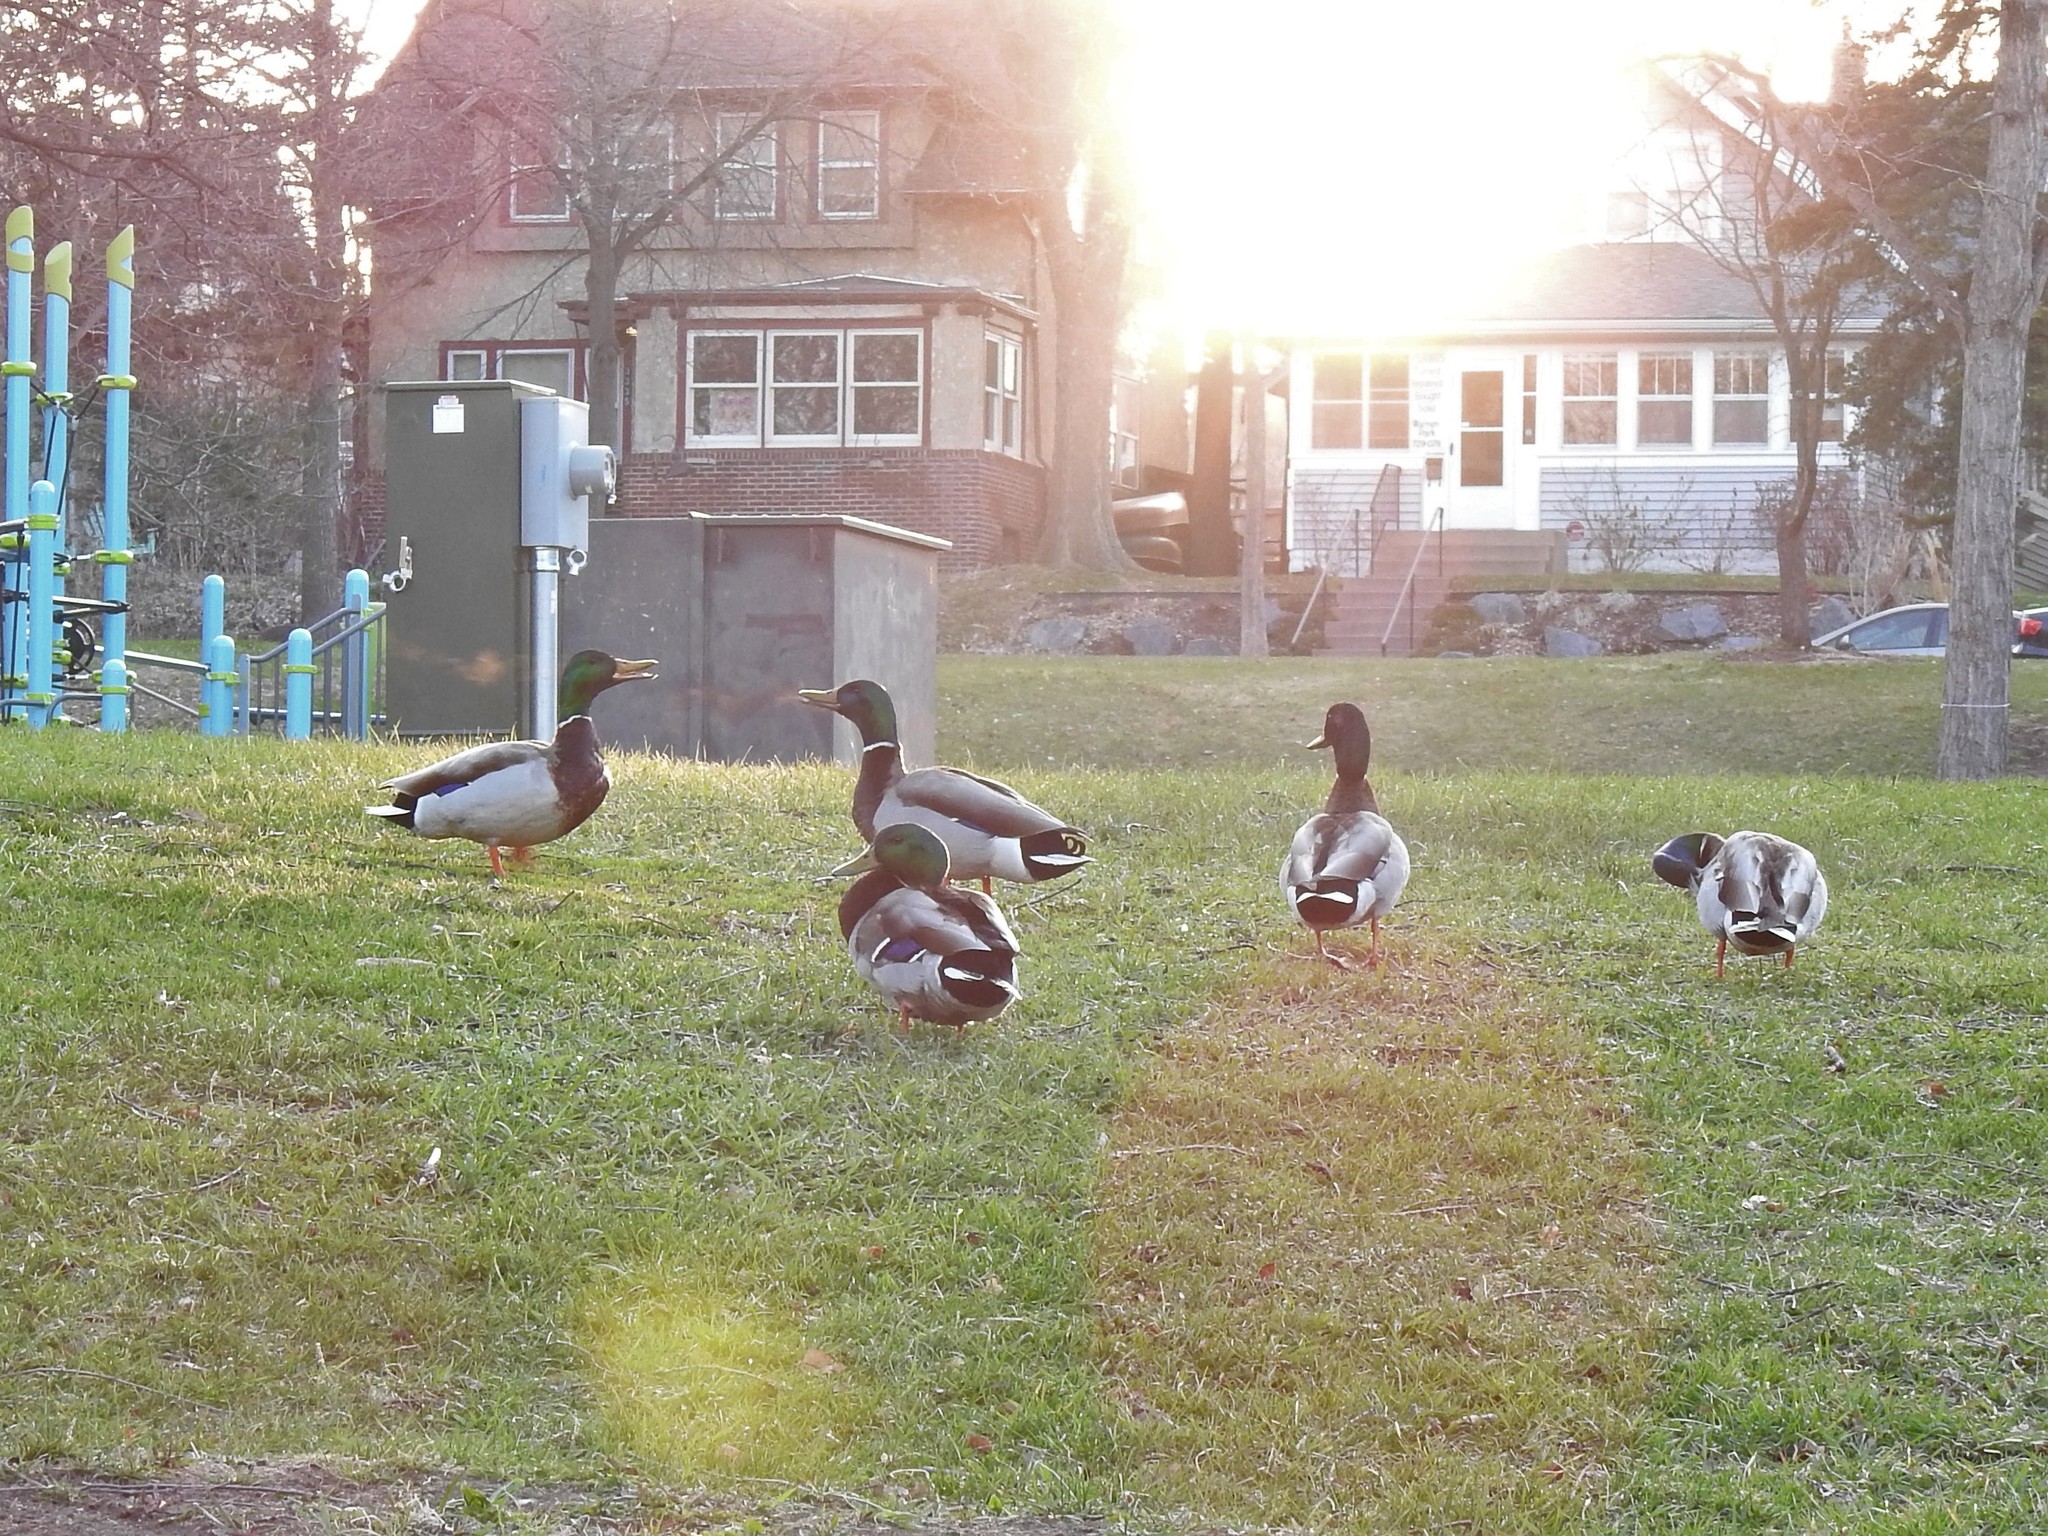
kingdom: Animalia
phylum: Chordata
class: Aves
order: Anseriformes
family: Anatidae
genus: Anas
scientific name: Anas platyrhynchos
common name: Mallard
